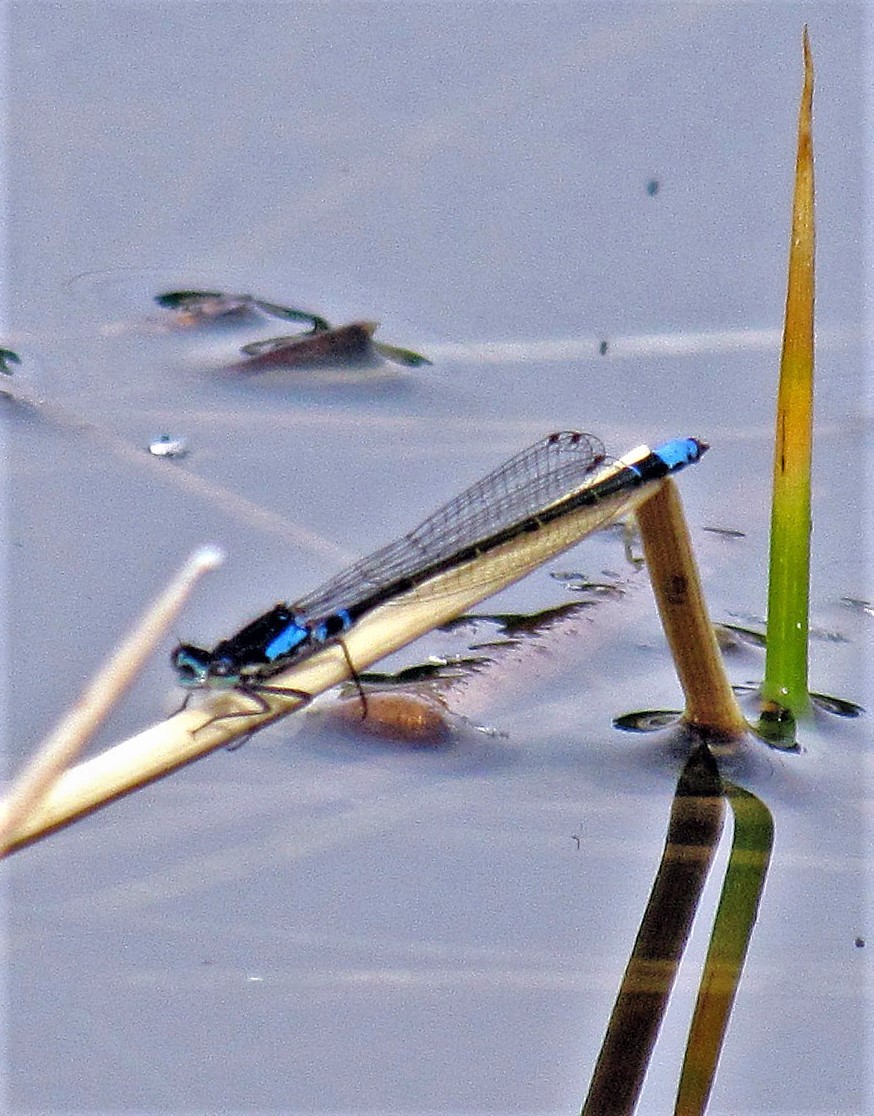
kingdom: Animalia
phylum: Arthropoda
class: Insecta
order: Odonata
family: Coenagrionidae
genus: Cyanallagma
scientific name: Cyanallagma interruptum
